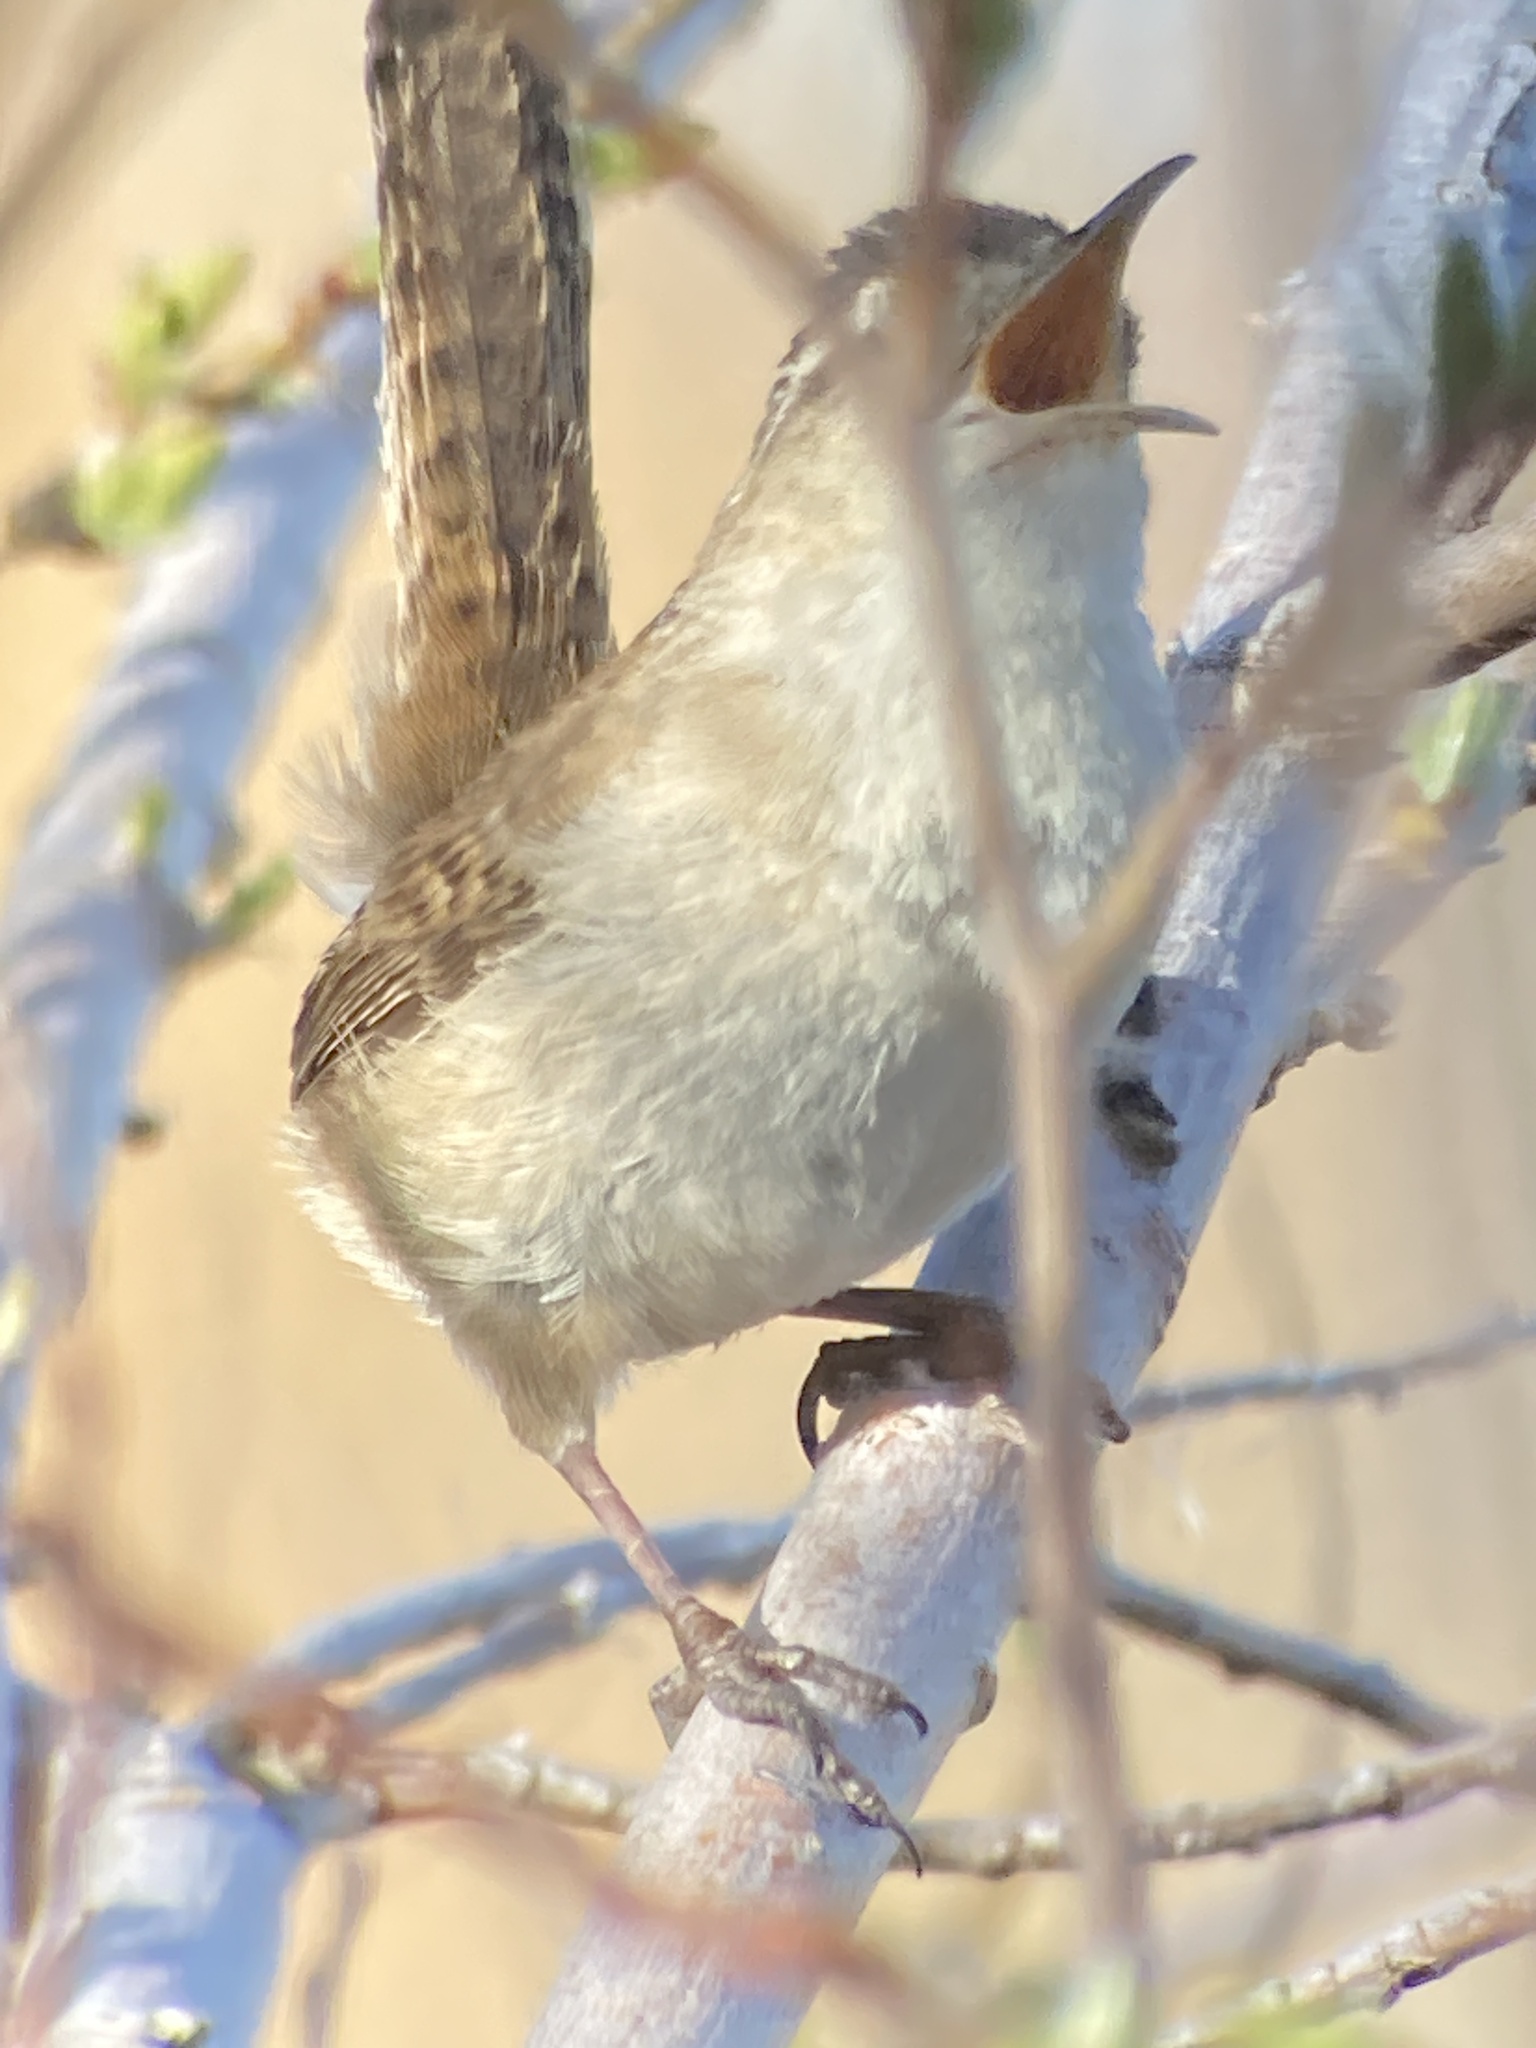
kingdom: Animalia
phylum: Chordata
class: Aves
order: Passeriformes
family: Troglodytidae
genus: Cistothorus
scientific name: Cistothorus palustris
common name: Marsh wren
